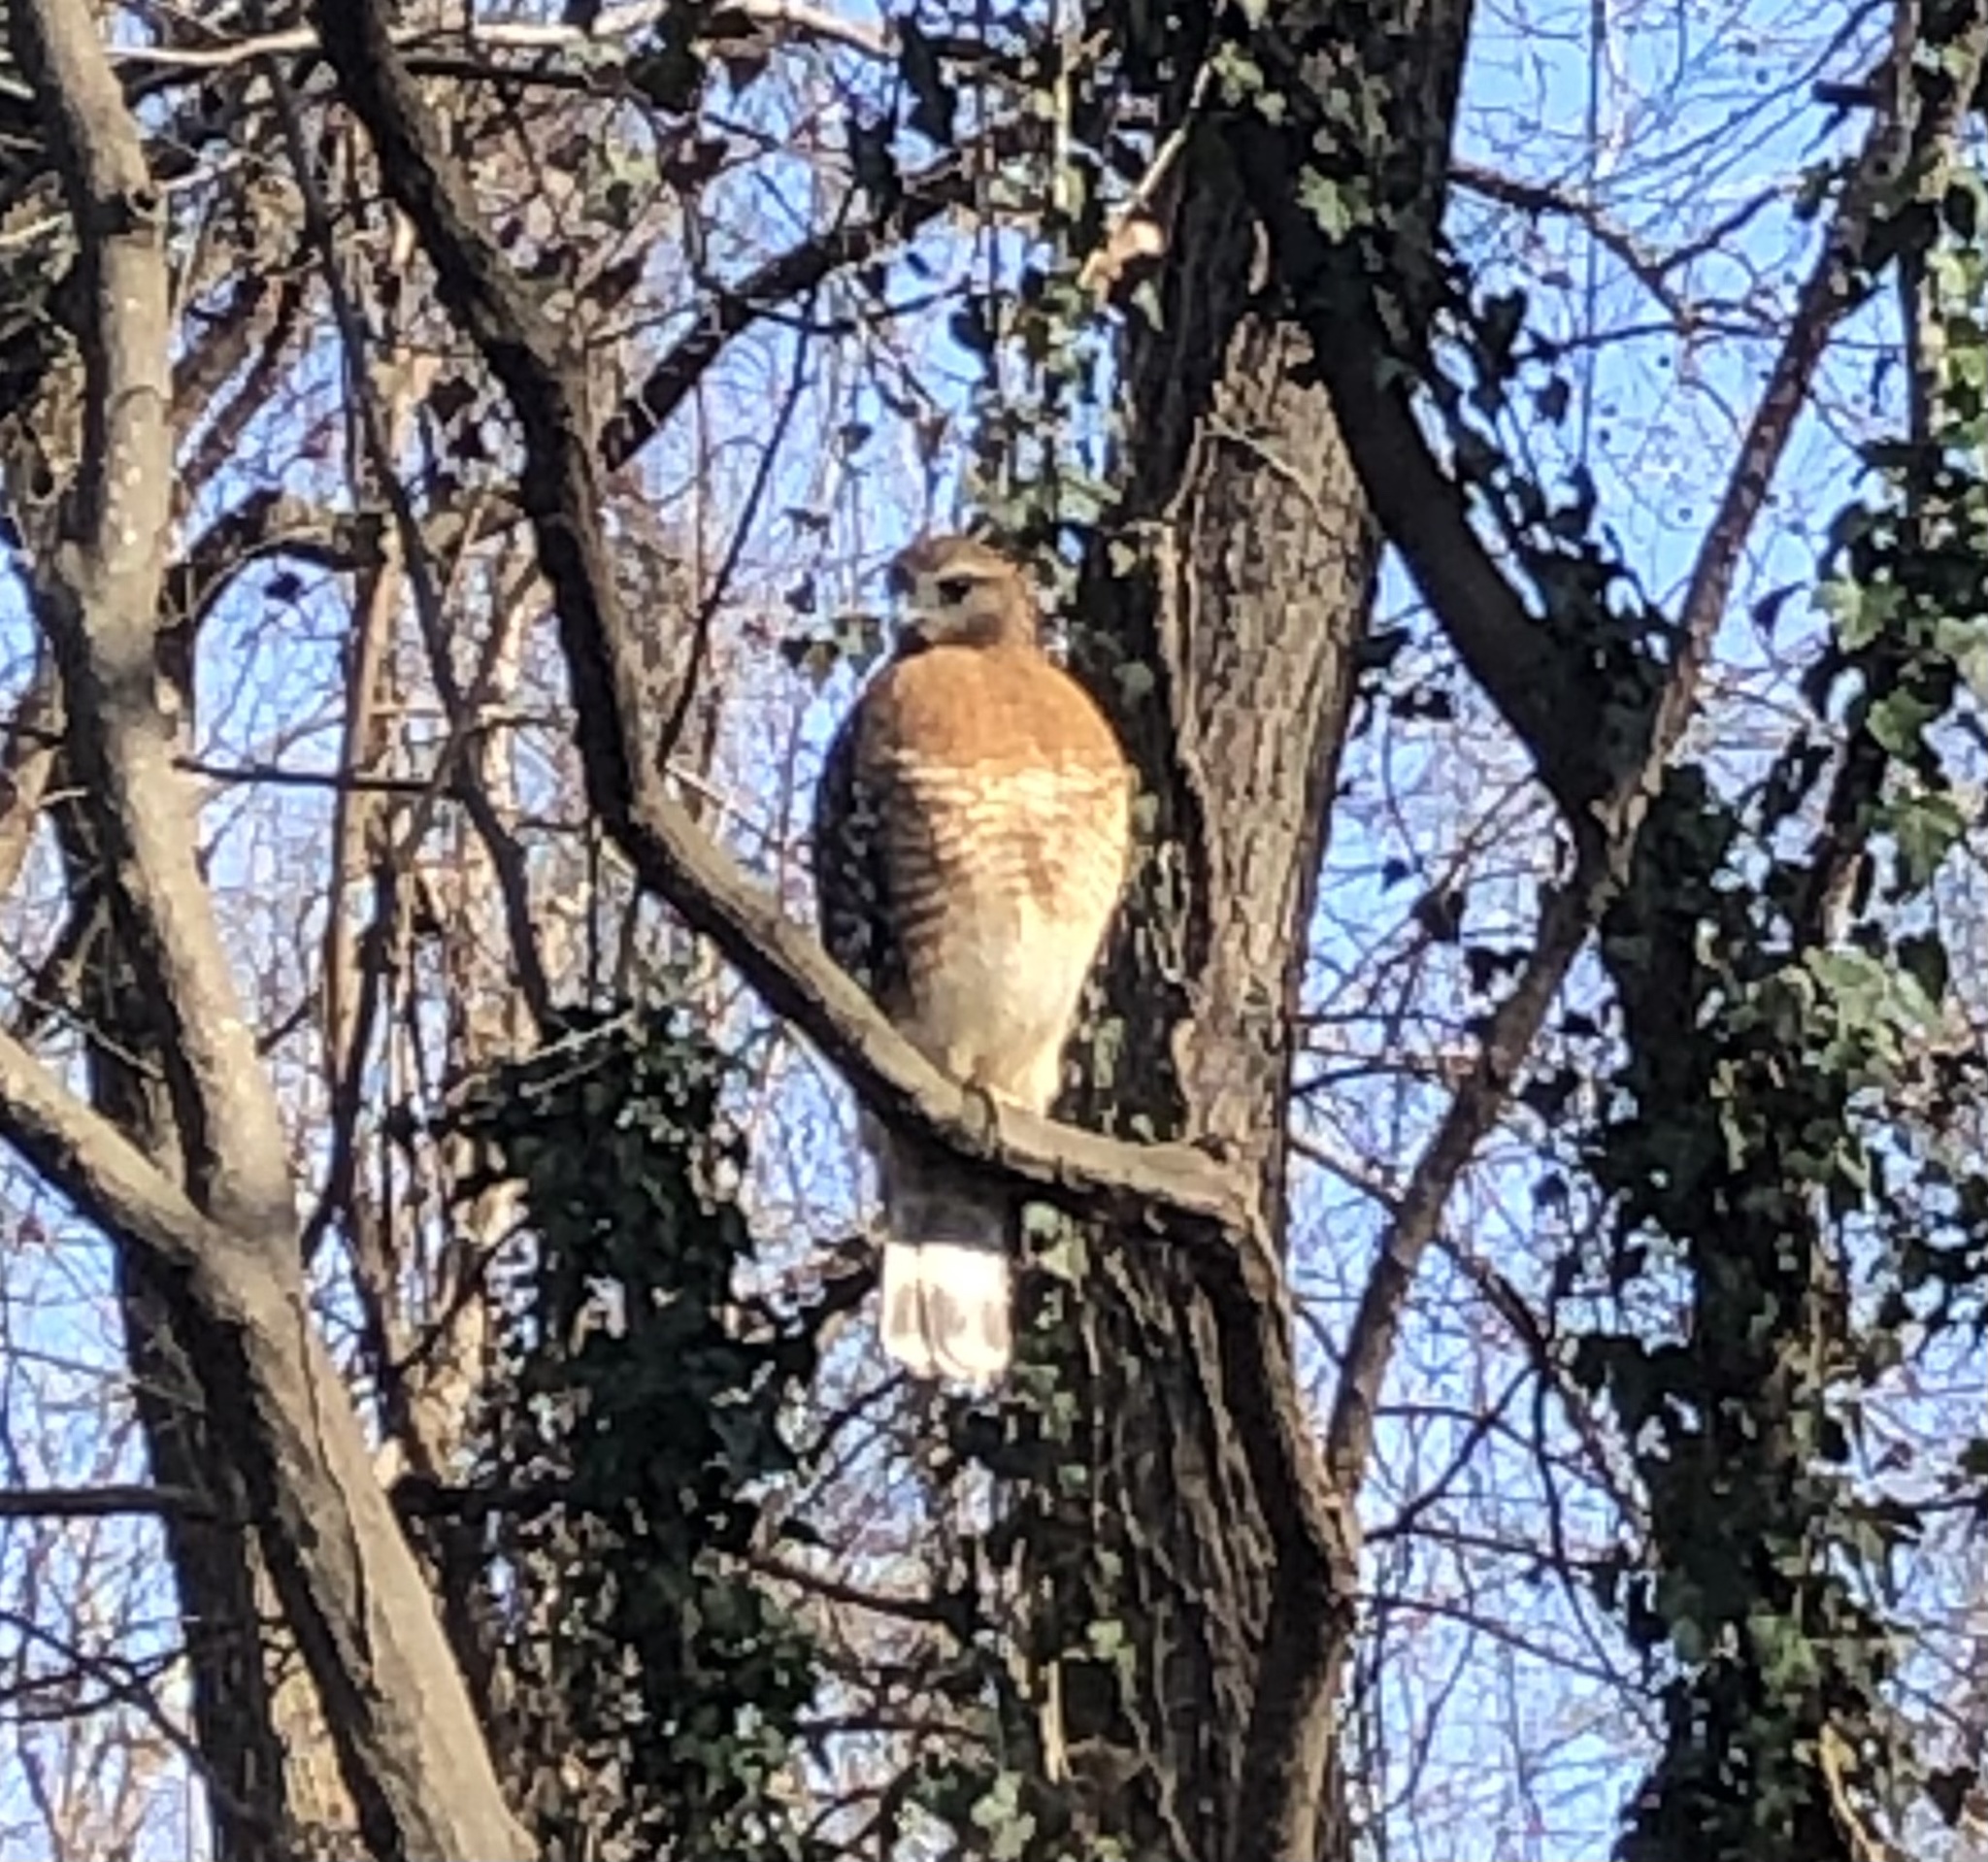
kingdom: Animalia
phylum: Chordata
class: Aves
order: Accipitriformes
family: Accipitridae
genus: Buteo
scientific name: Buteo lineatus
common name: Red-shouldered hawk
